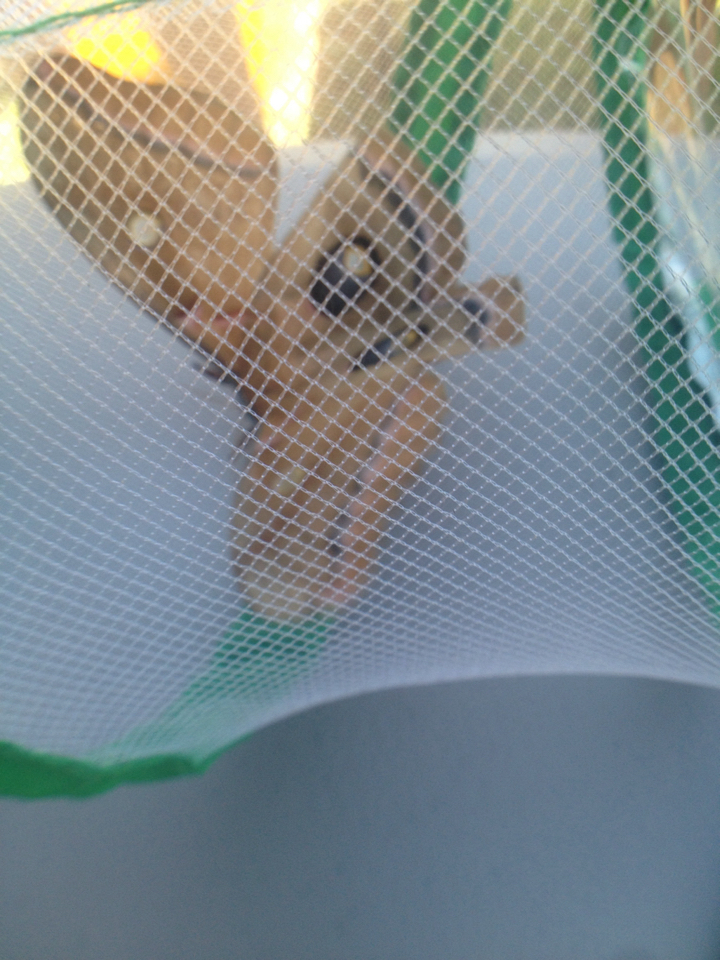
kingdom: Animalia
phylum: Arthropoda
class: Insecta
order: Lepidoptera
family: Saturniidae
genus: Antheraea
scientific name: Antheraea polyphemus
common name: Polyphemus moth
